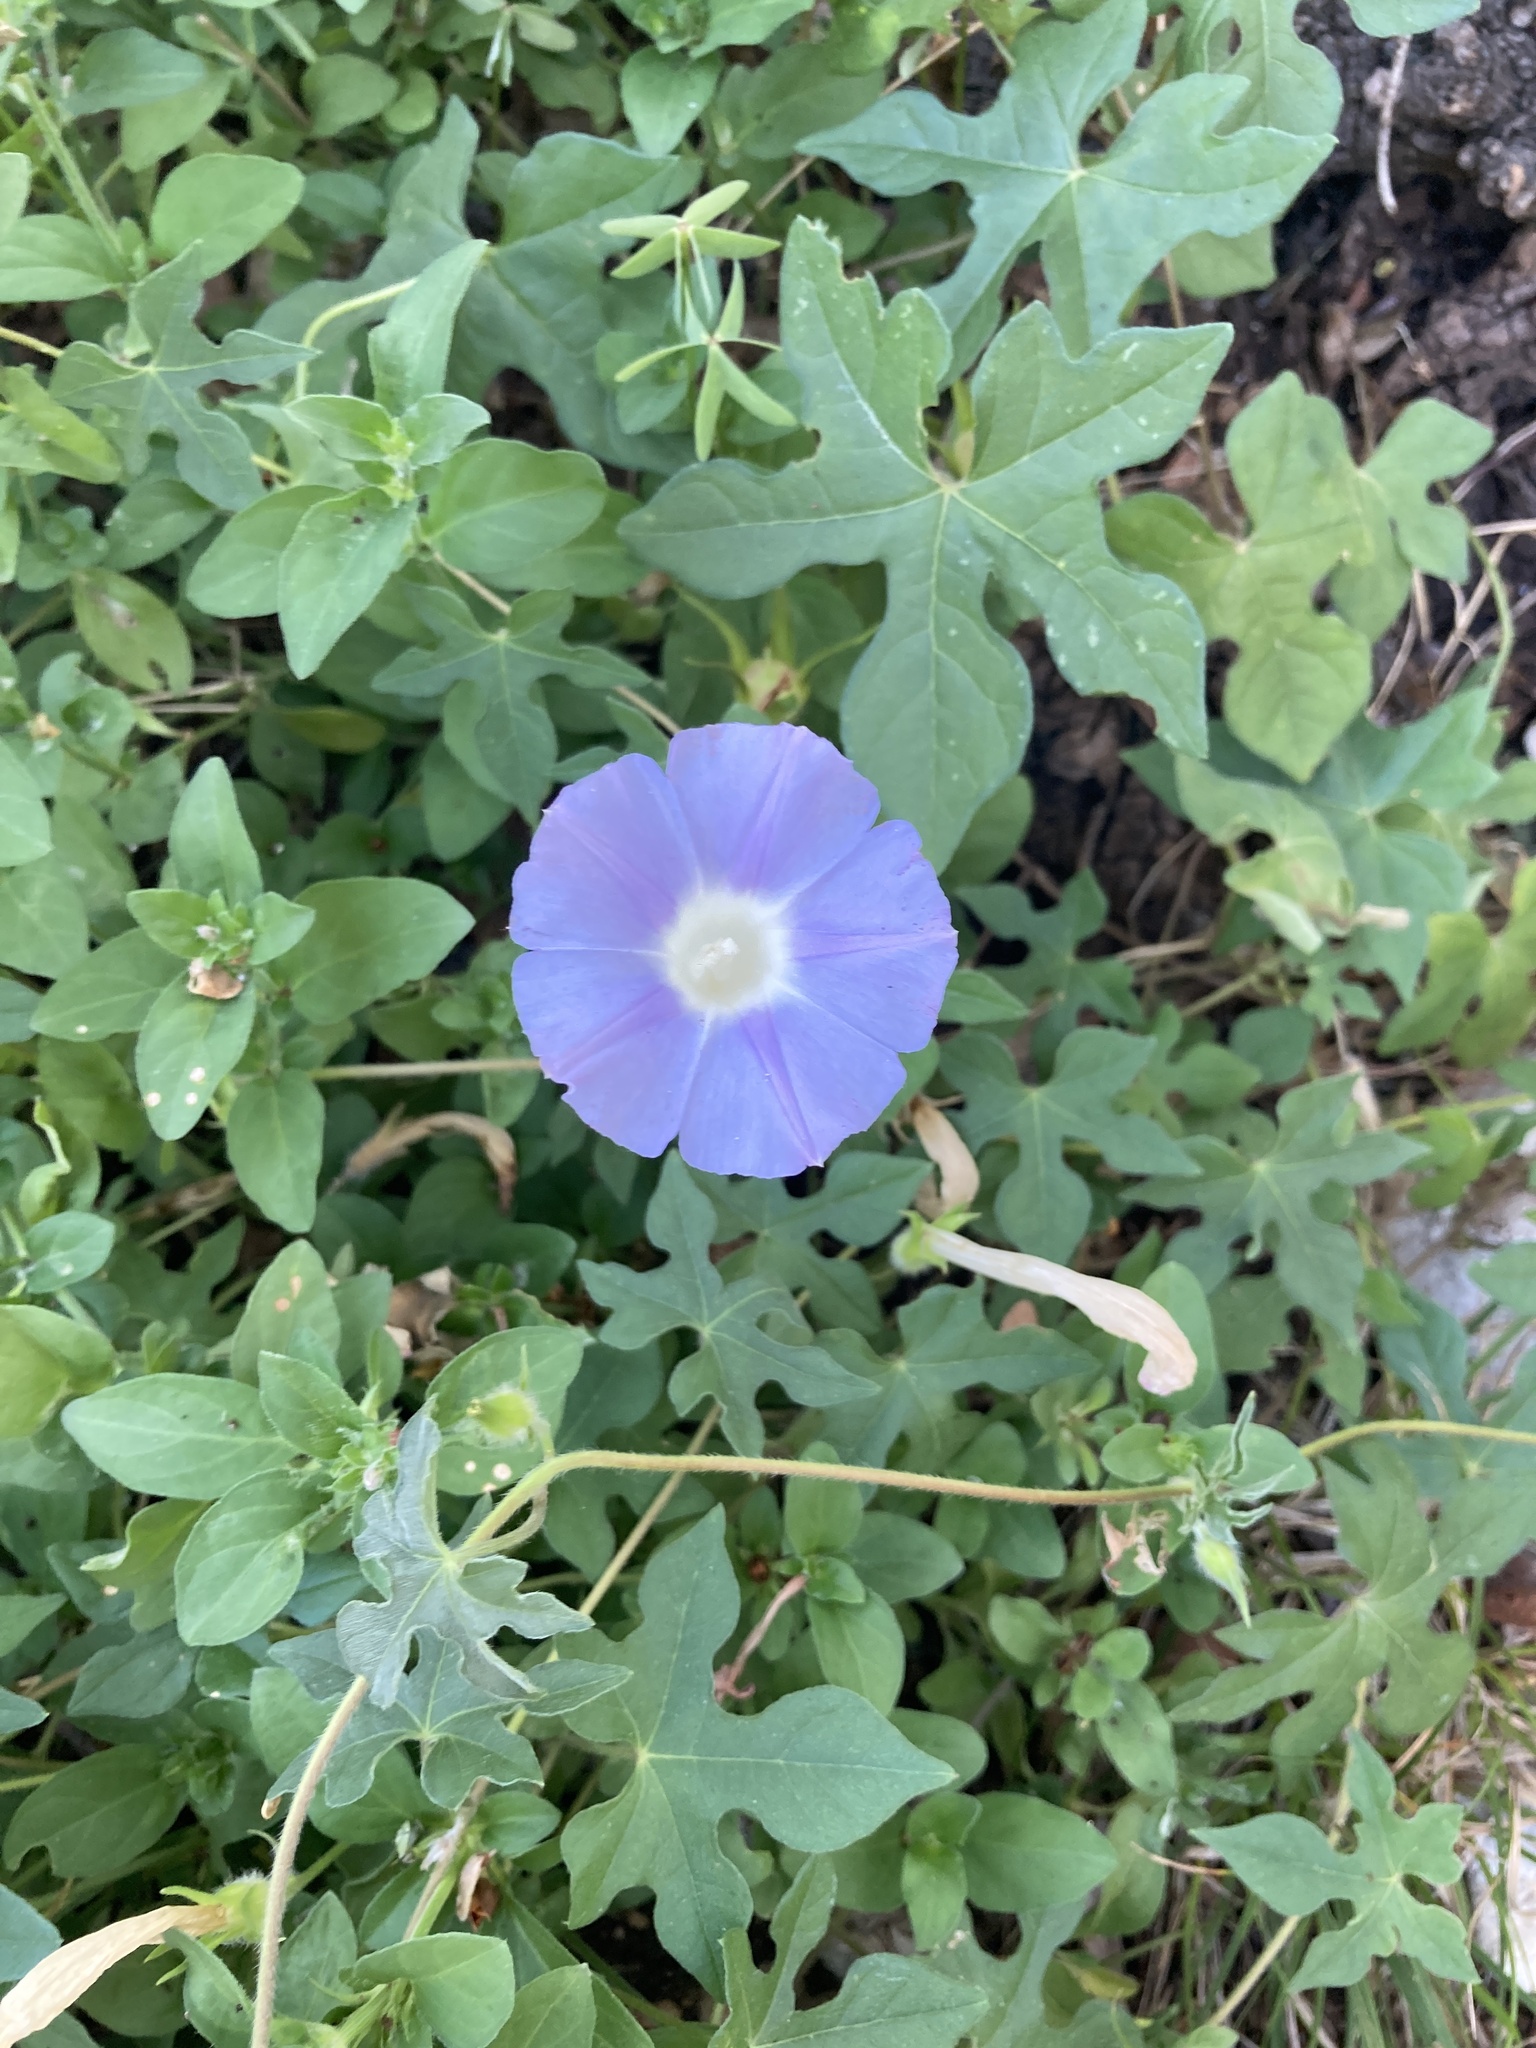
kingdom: Plantae
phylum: Tracheophyta
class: Magnoliopsida
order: Solanales
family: Convolvulaceae
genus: Ipomoea
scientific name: Ipomoea lindheimeri
